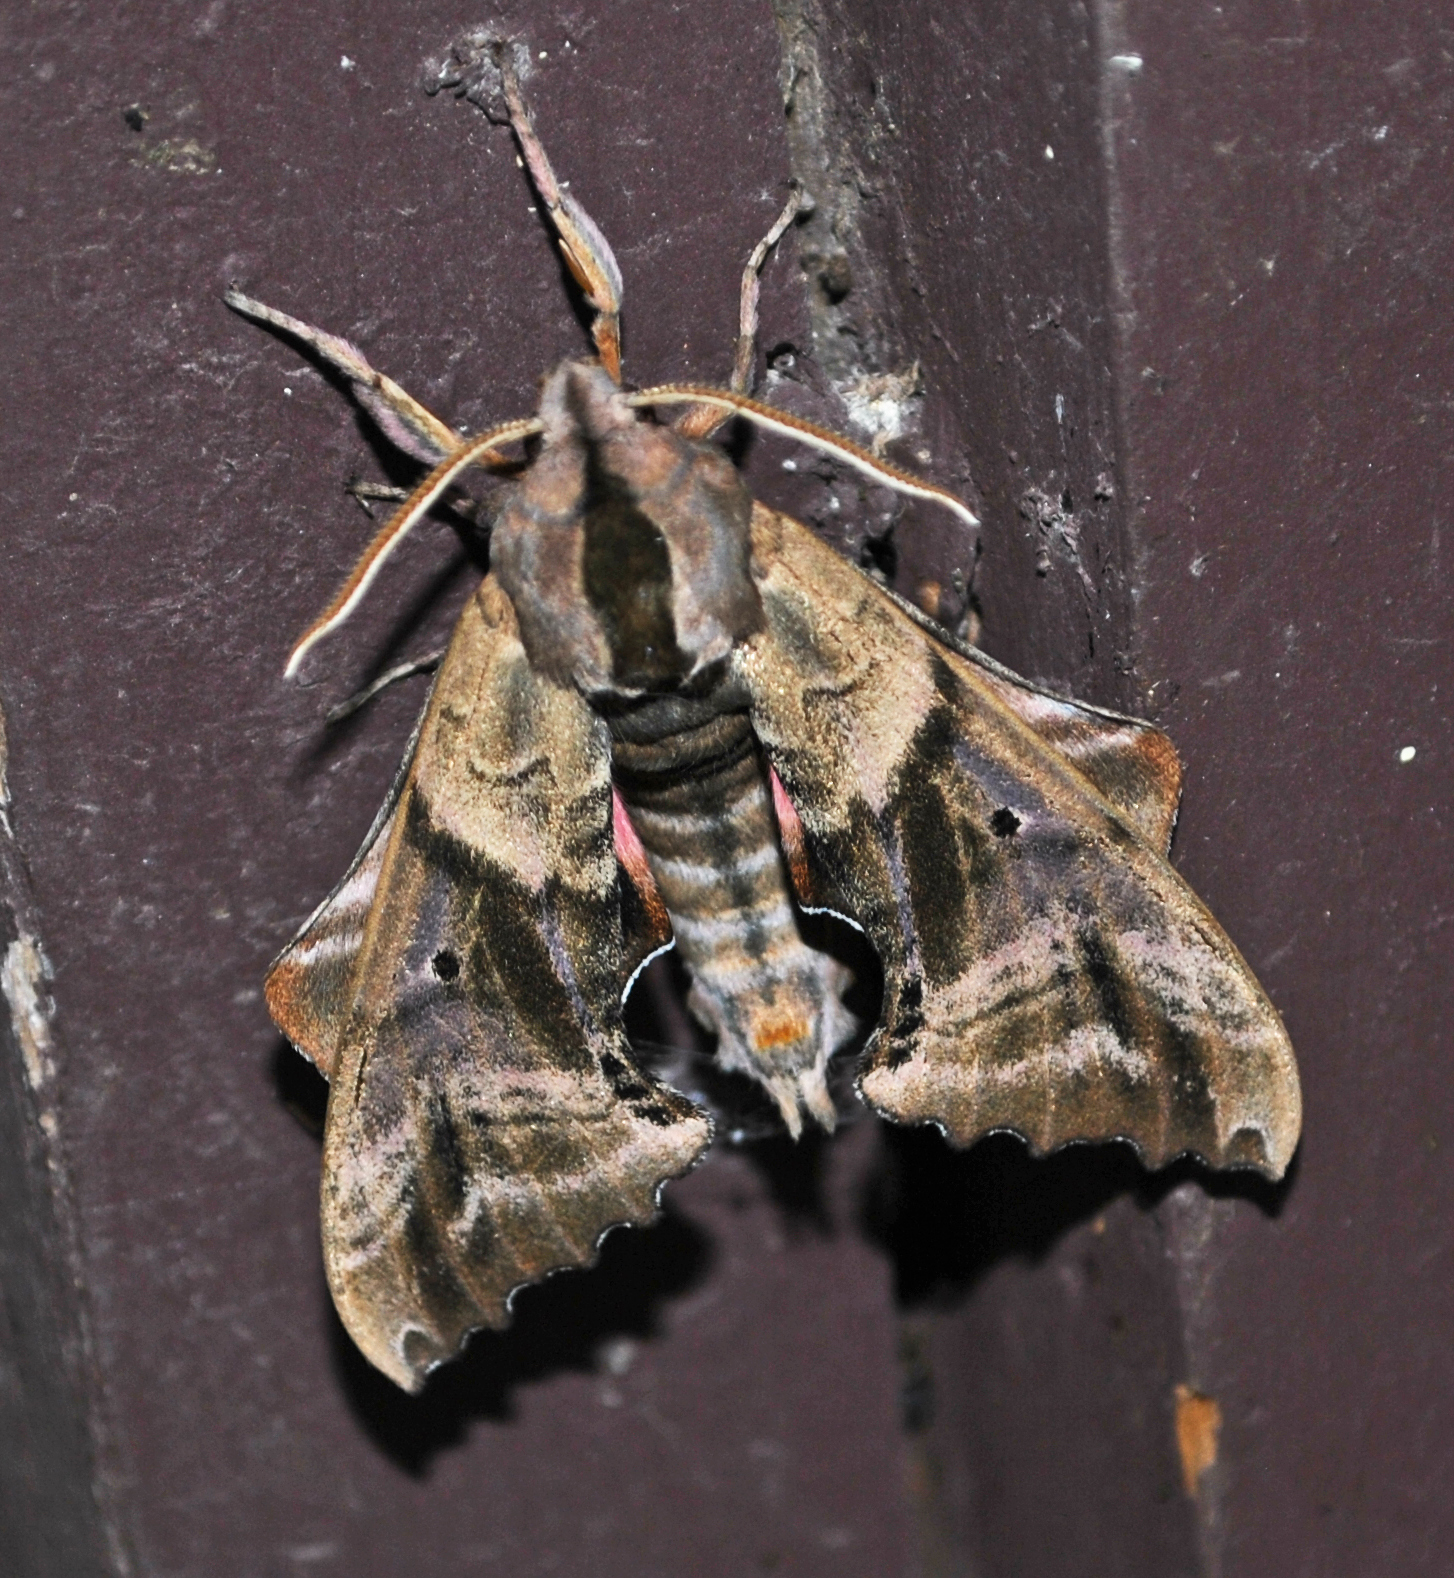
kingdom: Animalia
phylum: Arthropoda
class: Insecta
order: Lepidoptera
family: Sphingidae
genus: Paonias
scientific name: Paonias excaecata
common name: Blind-eyed sphinx
